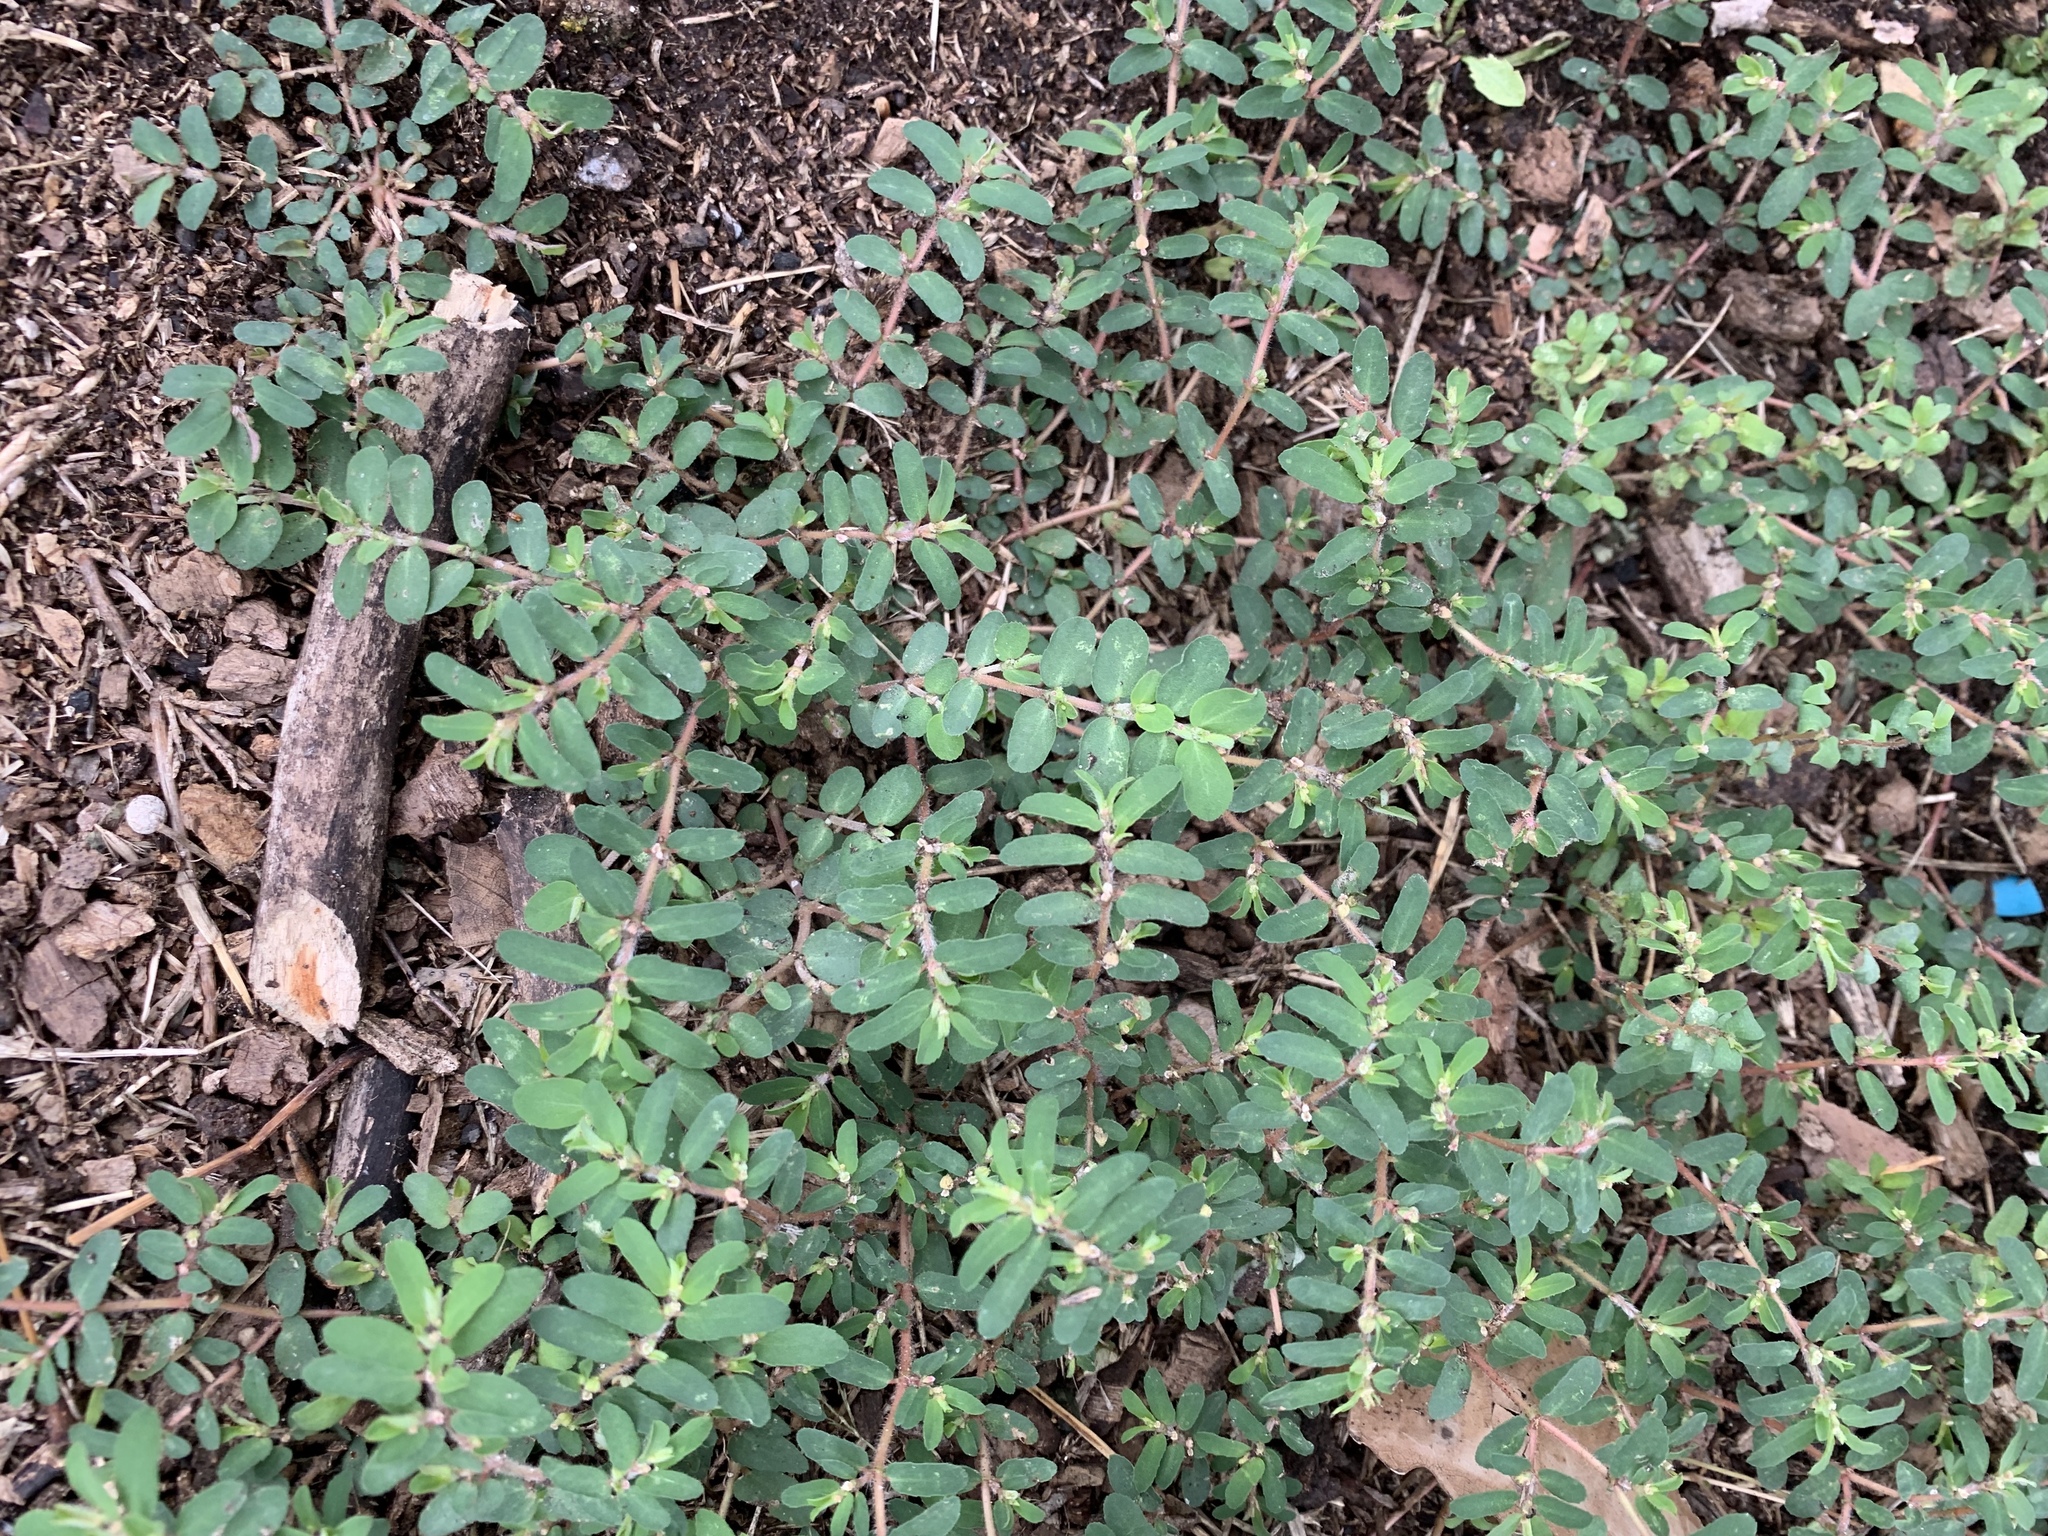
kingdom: Plantae
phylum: Tracheophyta
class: Magnoliopsida
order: Malpighiales
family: Euphorbiaceae
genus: Euphorbia
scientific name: Euphorbia maculata
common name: Spotted spurge
